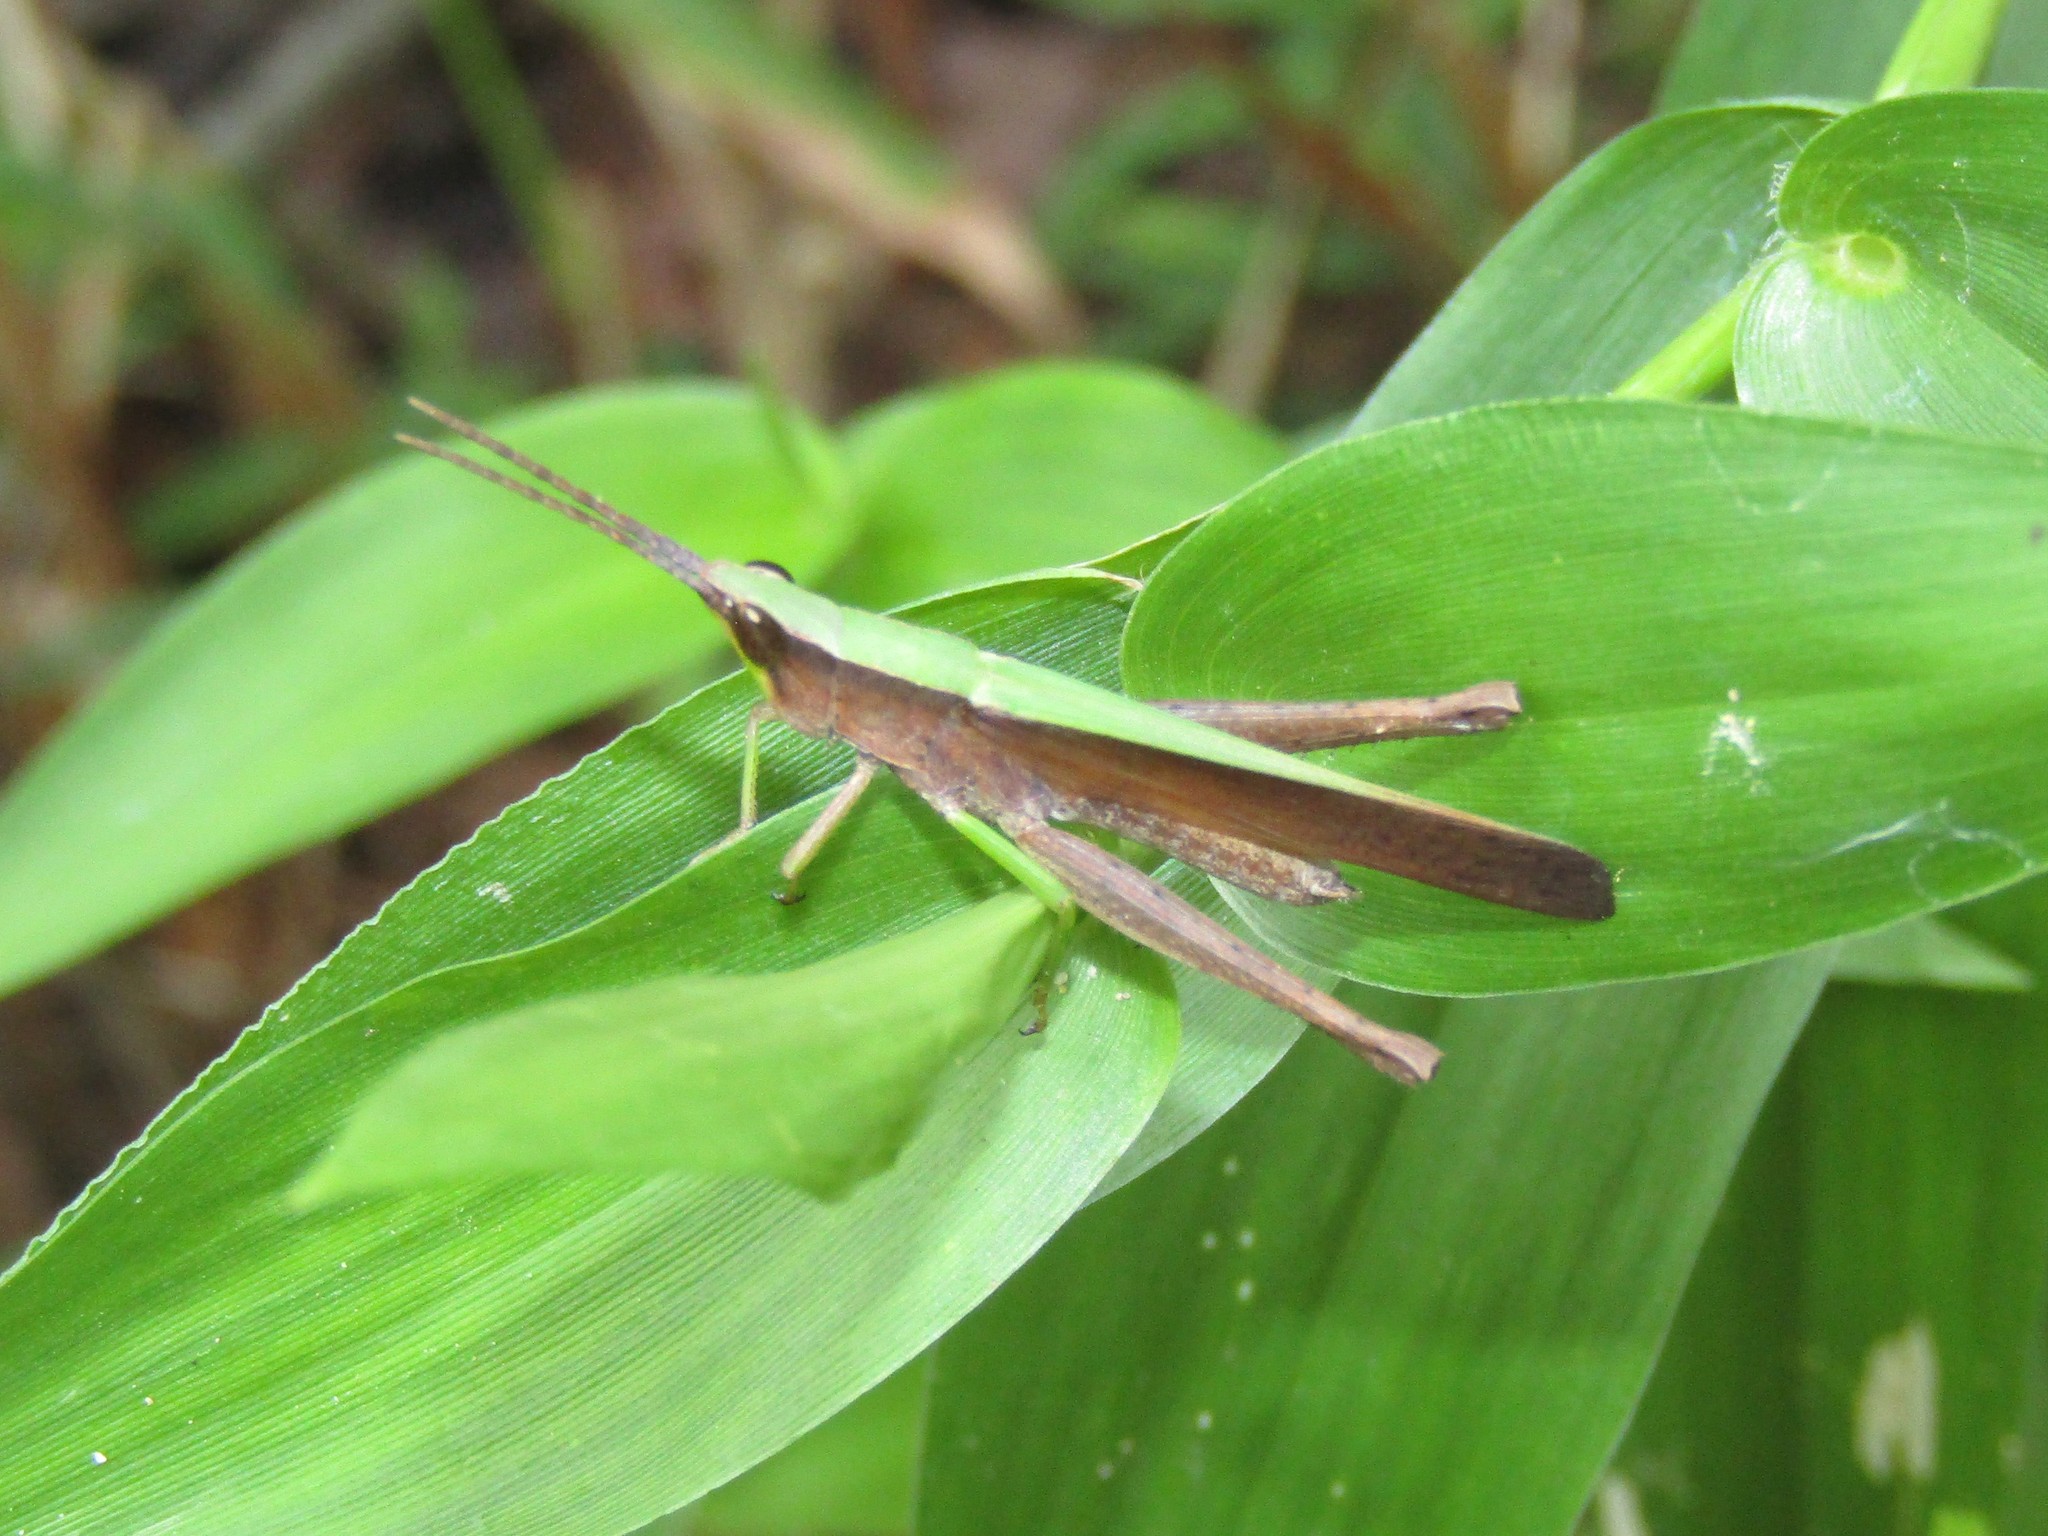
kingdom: Animalia
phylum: Arthropoda
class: Insecta
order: Orthoptera
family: Acrididae
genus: Metaleptea
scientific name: Metaleptea brevicornis
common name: Clipped-wing grasshopper
